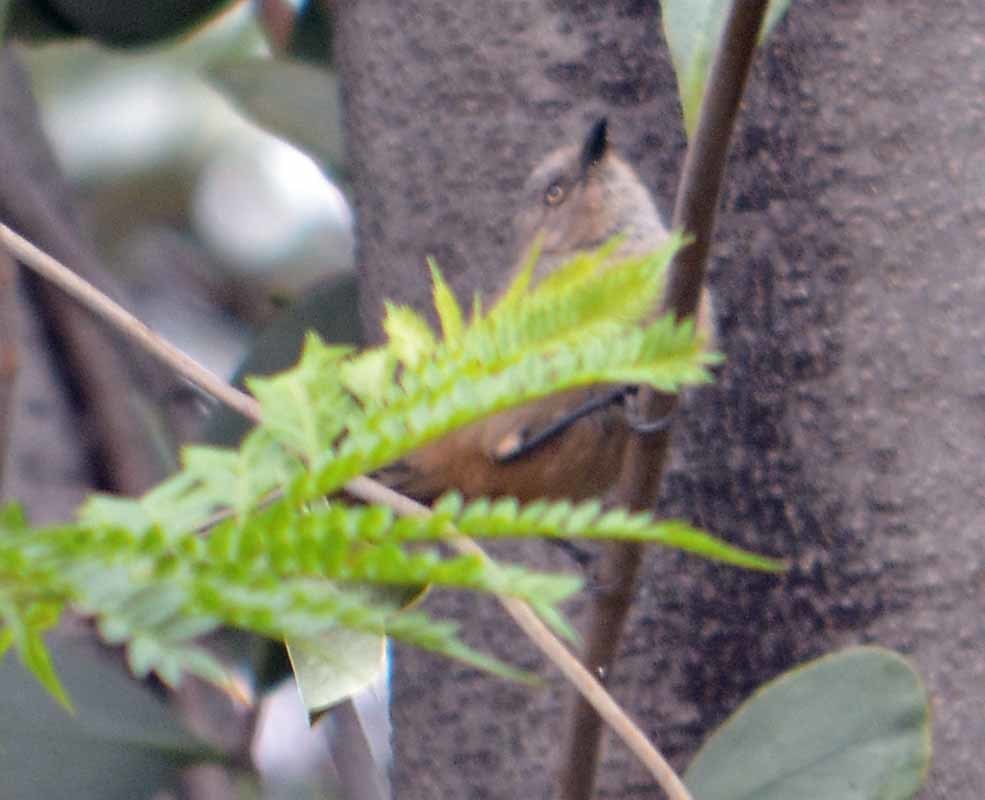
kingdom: Animalia
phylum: Chordata
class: Aves
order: Passeriformes
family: Aegithalidae
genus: Psaltriparus
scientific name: Psaltriparus minimus
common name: American bushtit
